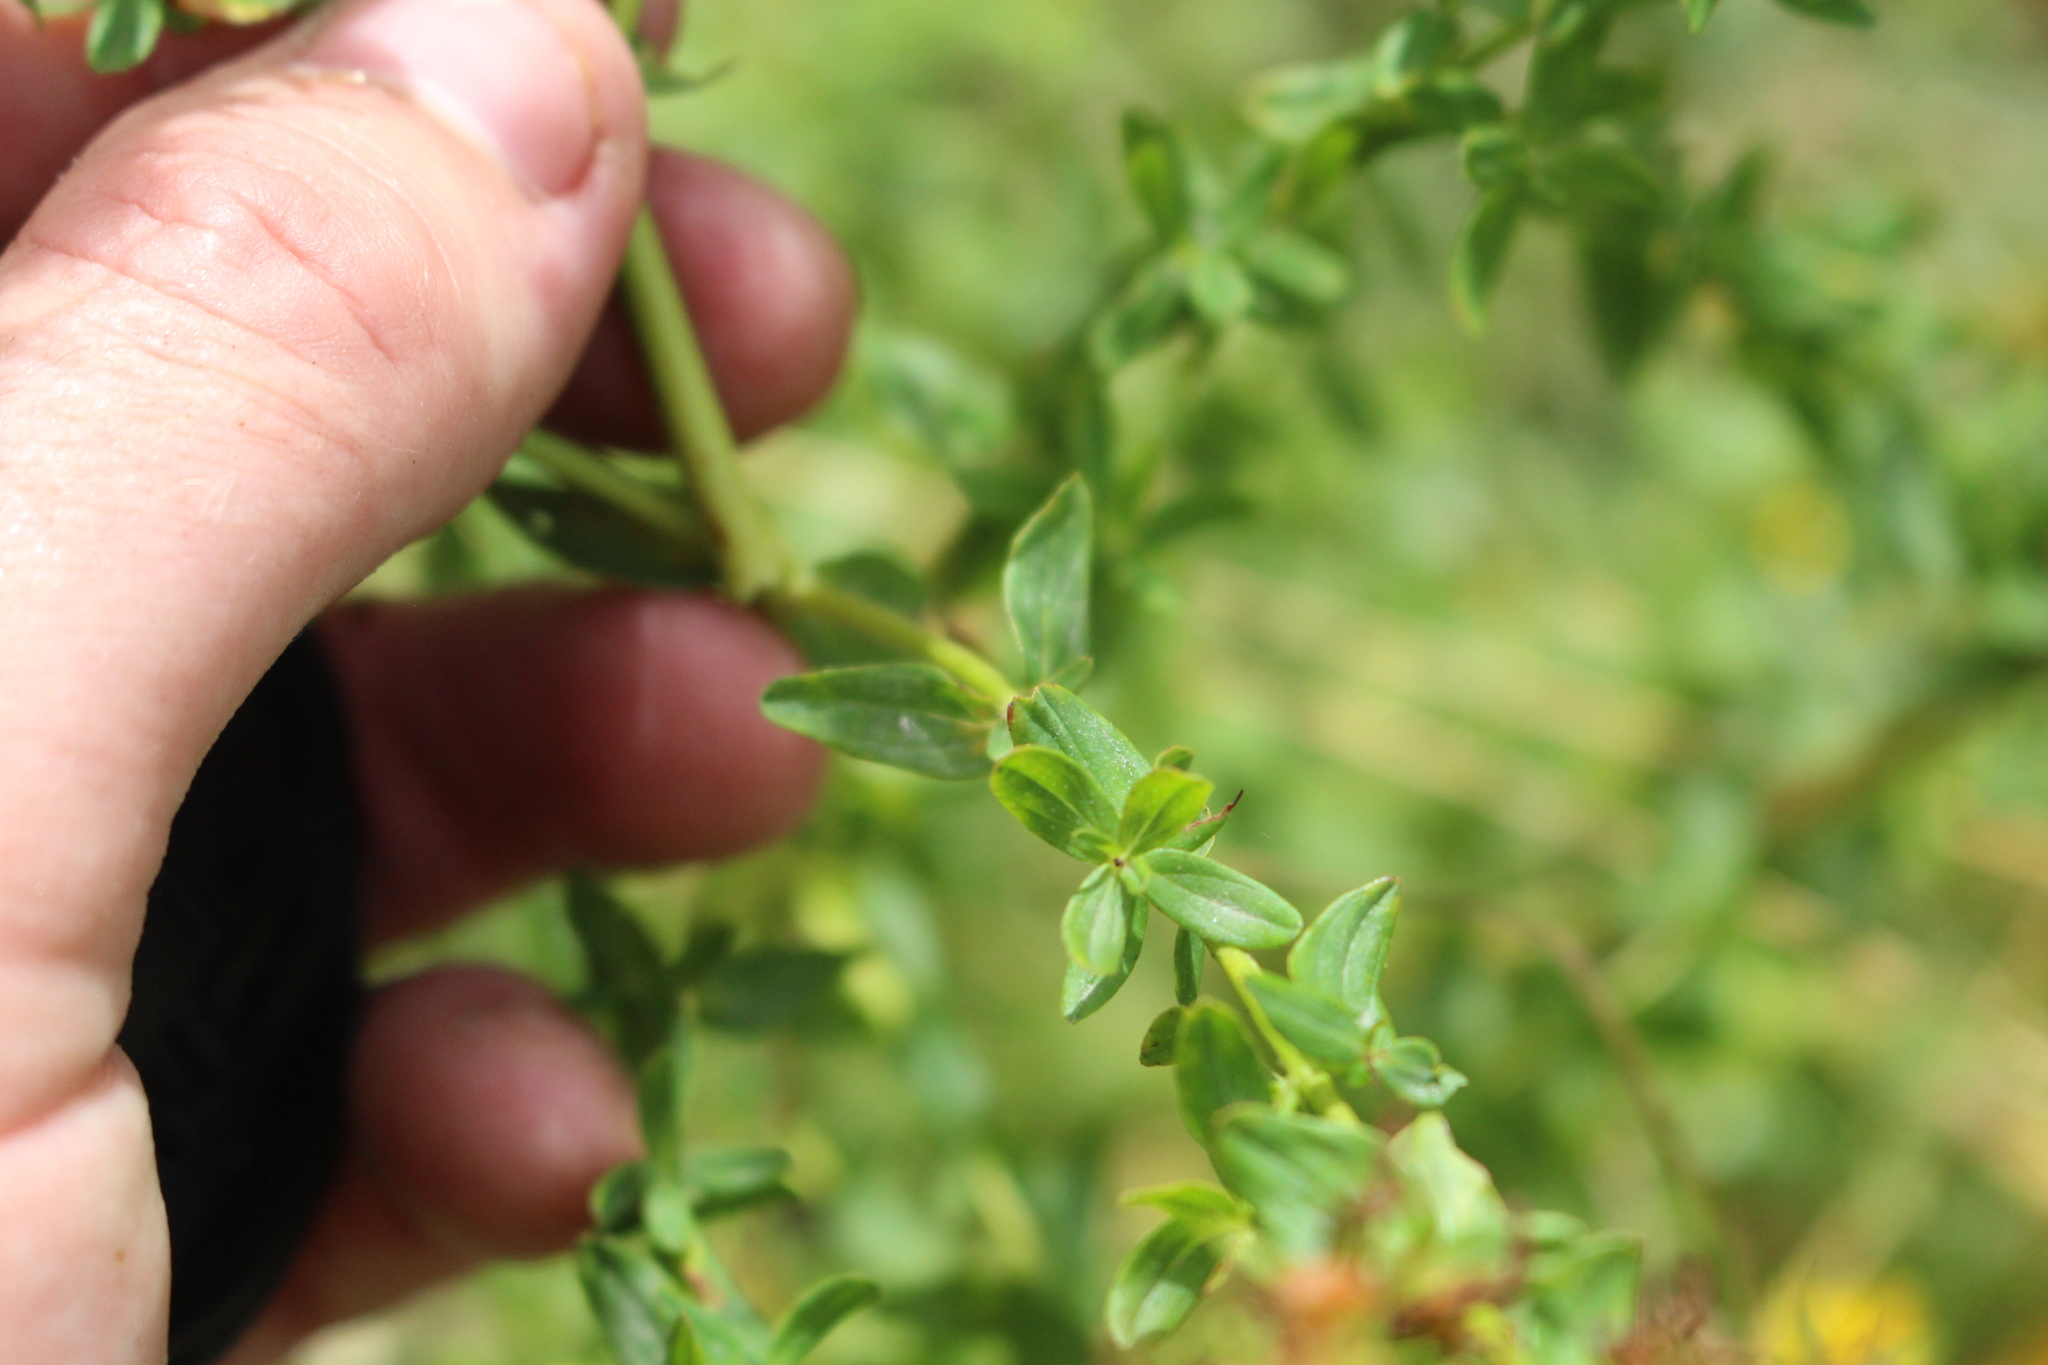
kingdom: Plantae
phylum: Tracheophyta
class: Magnoliopsida
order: Malpighiales
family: Hypericaceae
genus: Hypericum
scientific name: Hypericum perforatum
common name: Common st. johnswort
